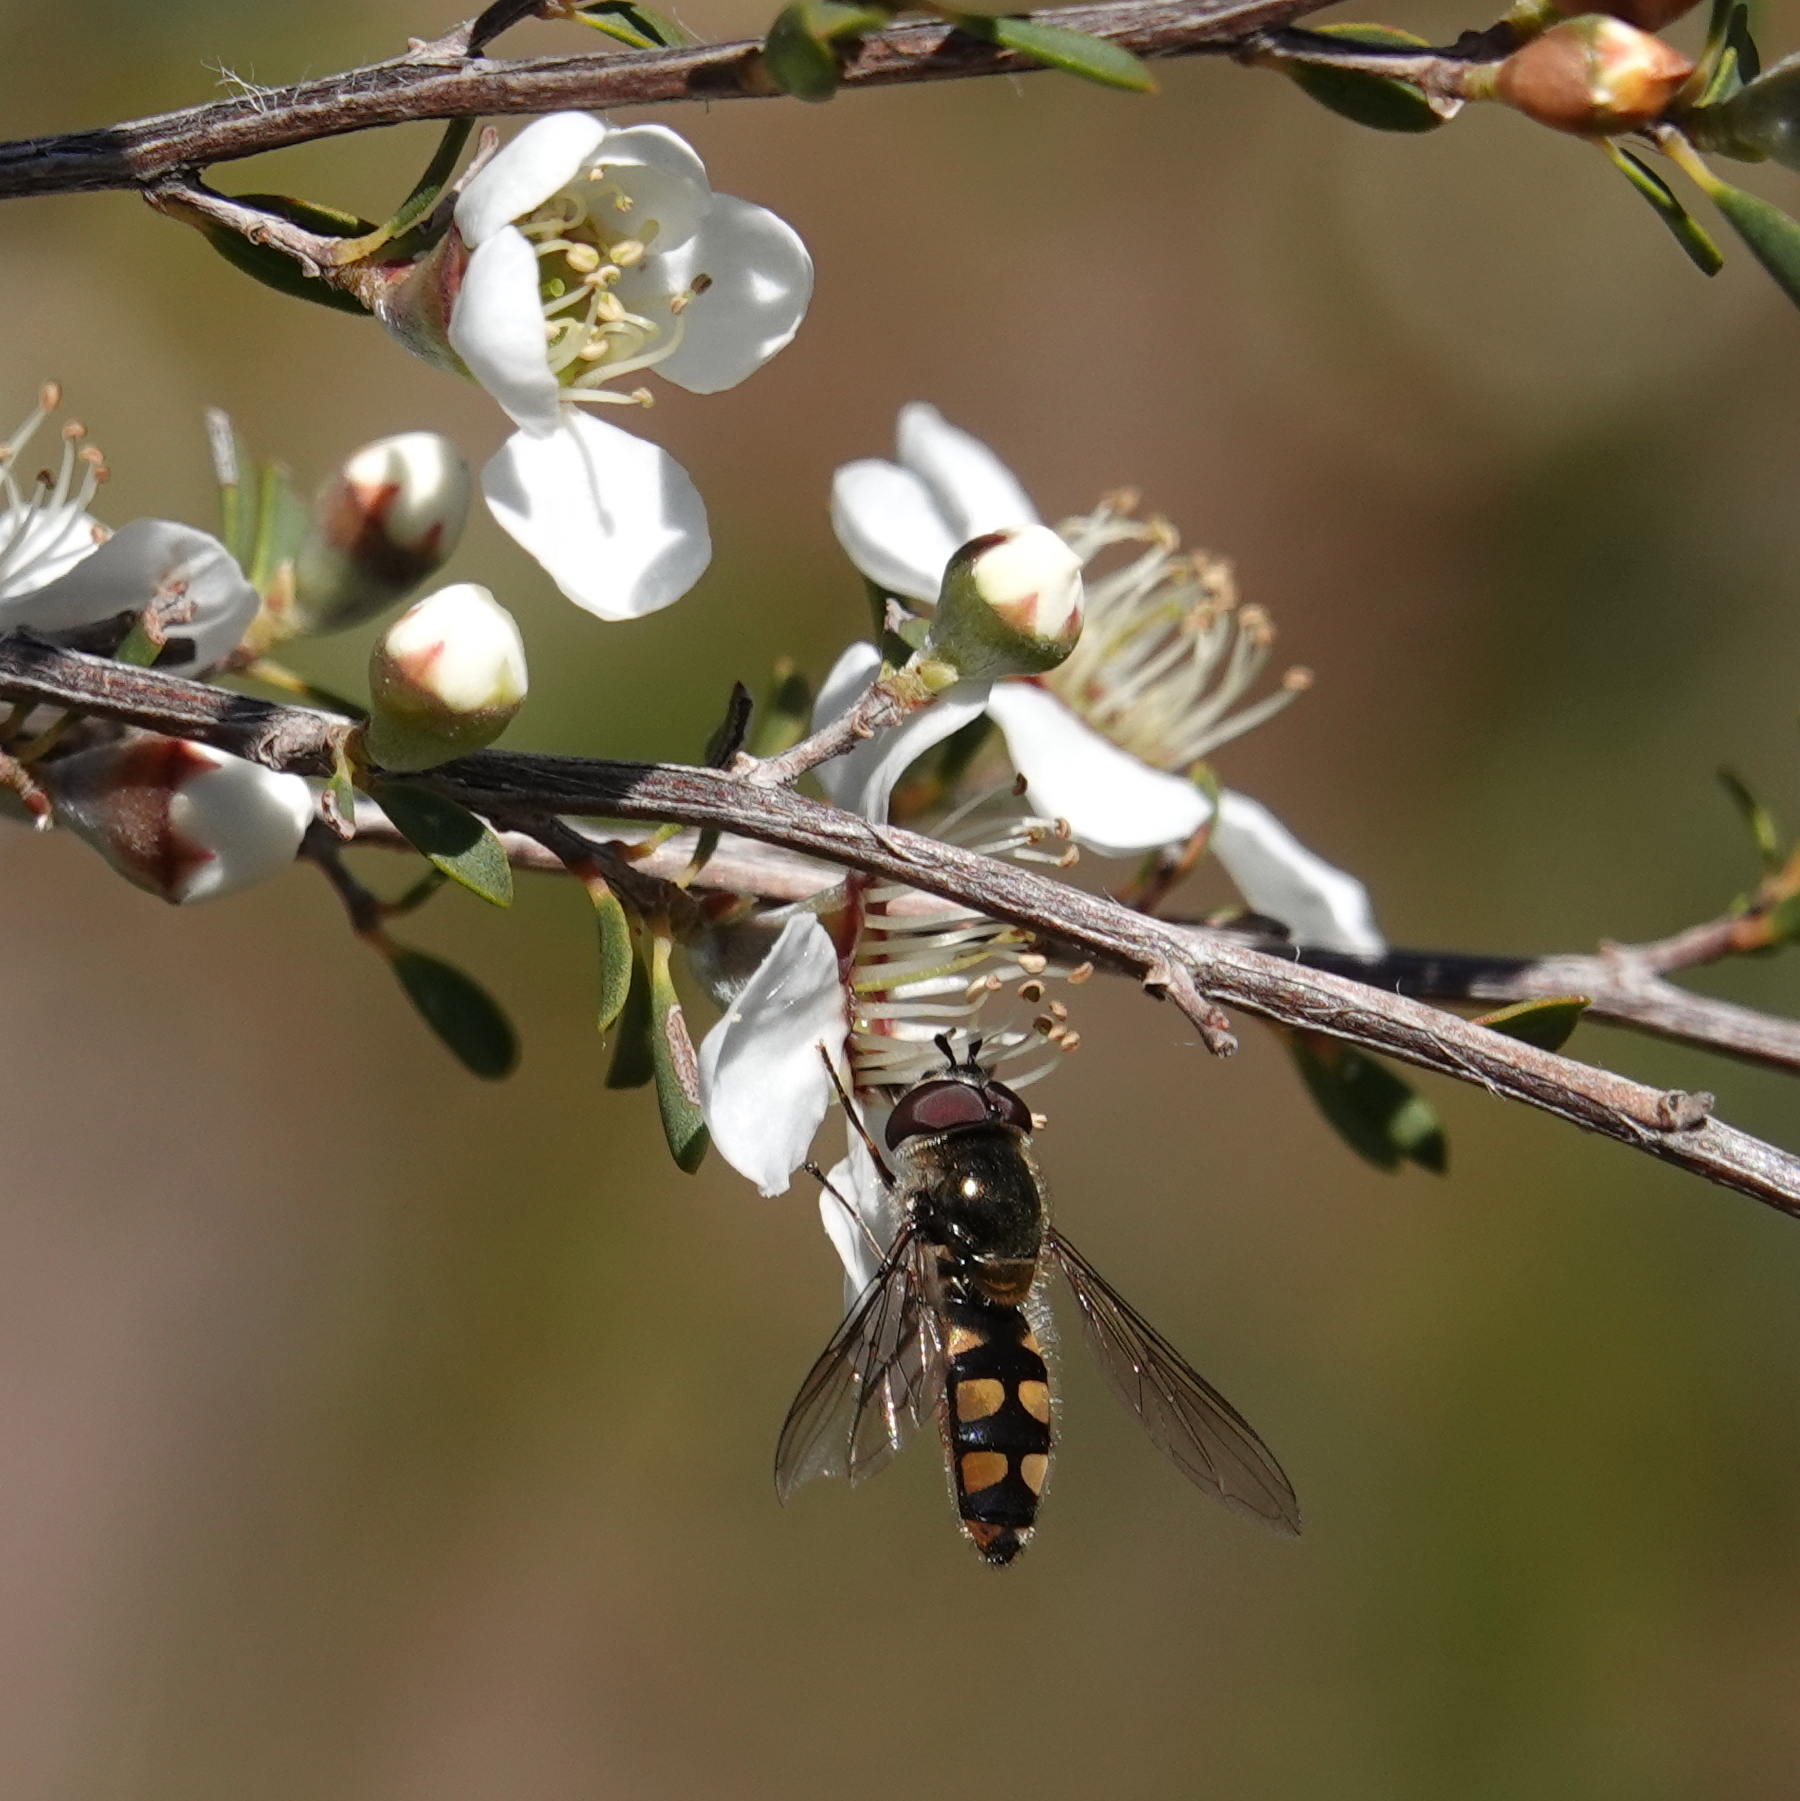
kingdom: Animalia
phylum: Arthropoda
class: Insecta
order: Diptera
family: Syrphidae
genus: Melangyna
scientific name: Melangyna viridiceps
